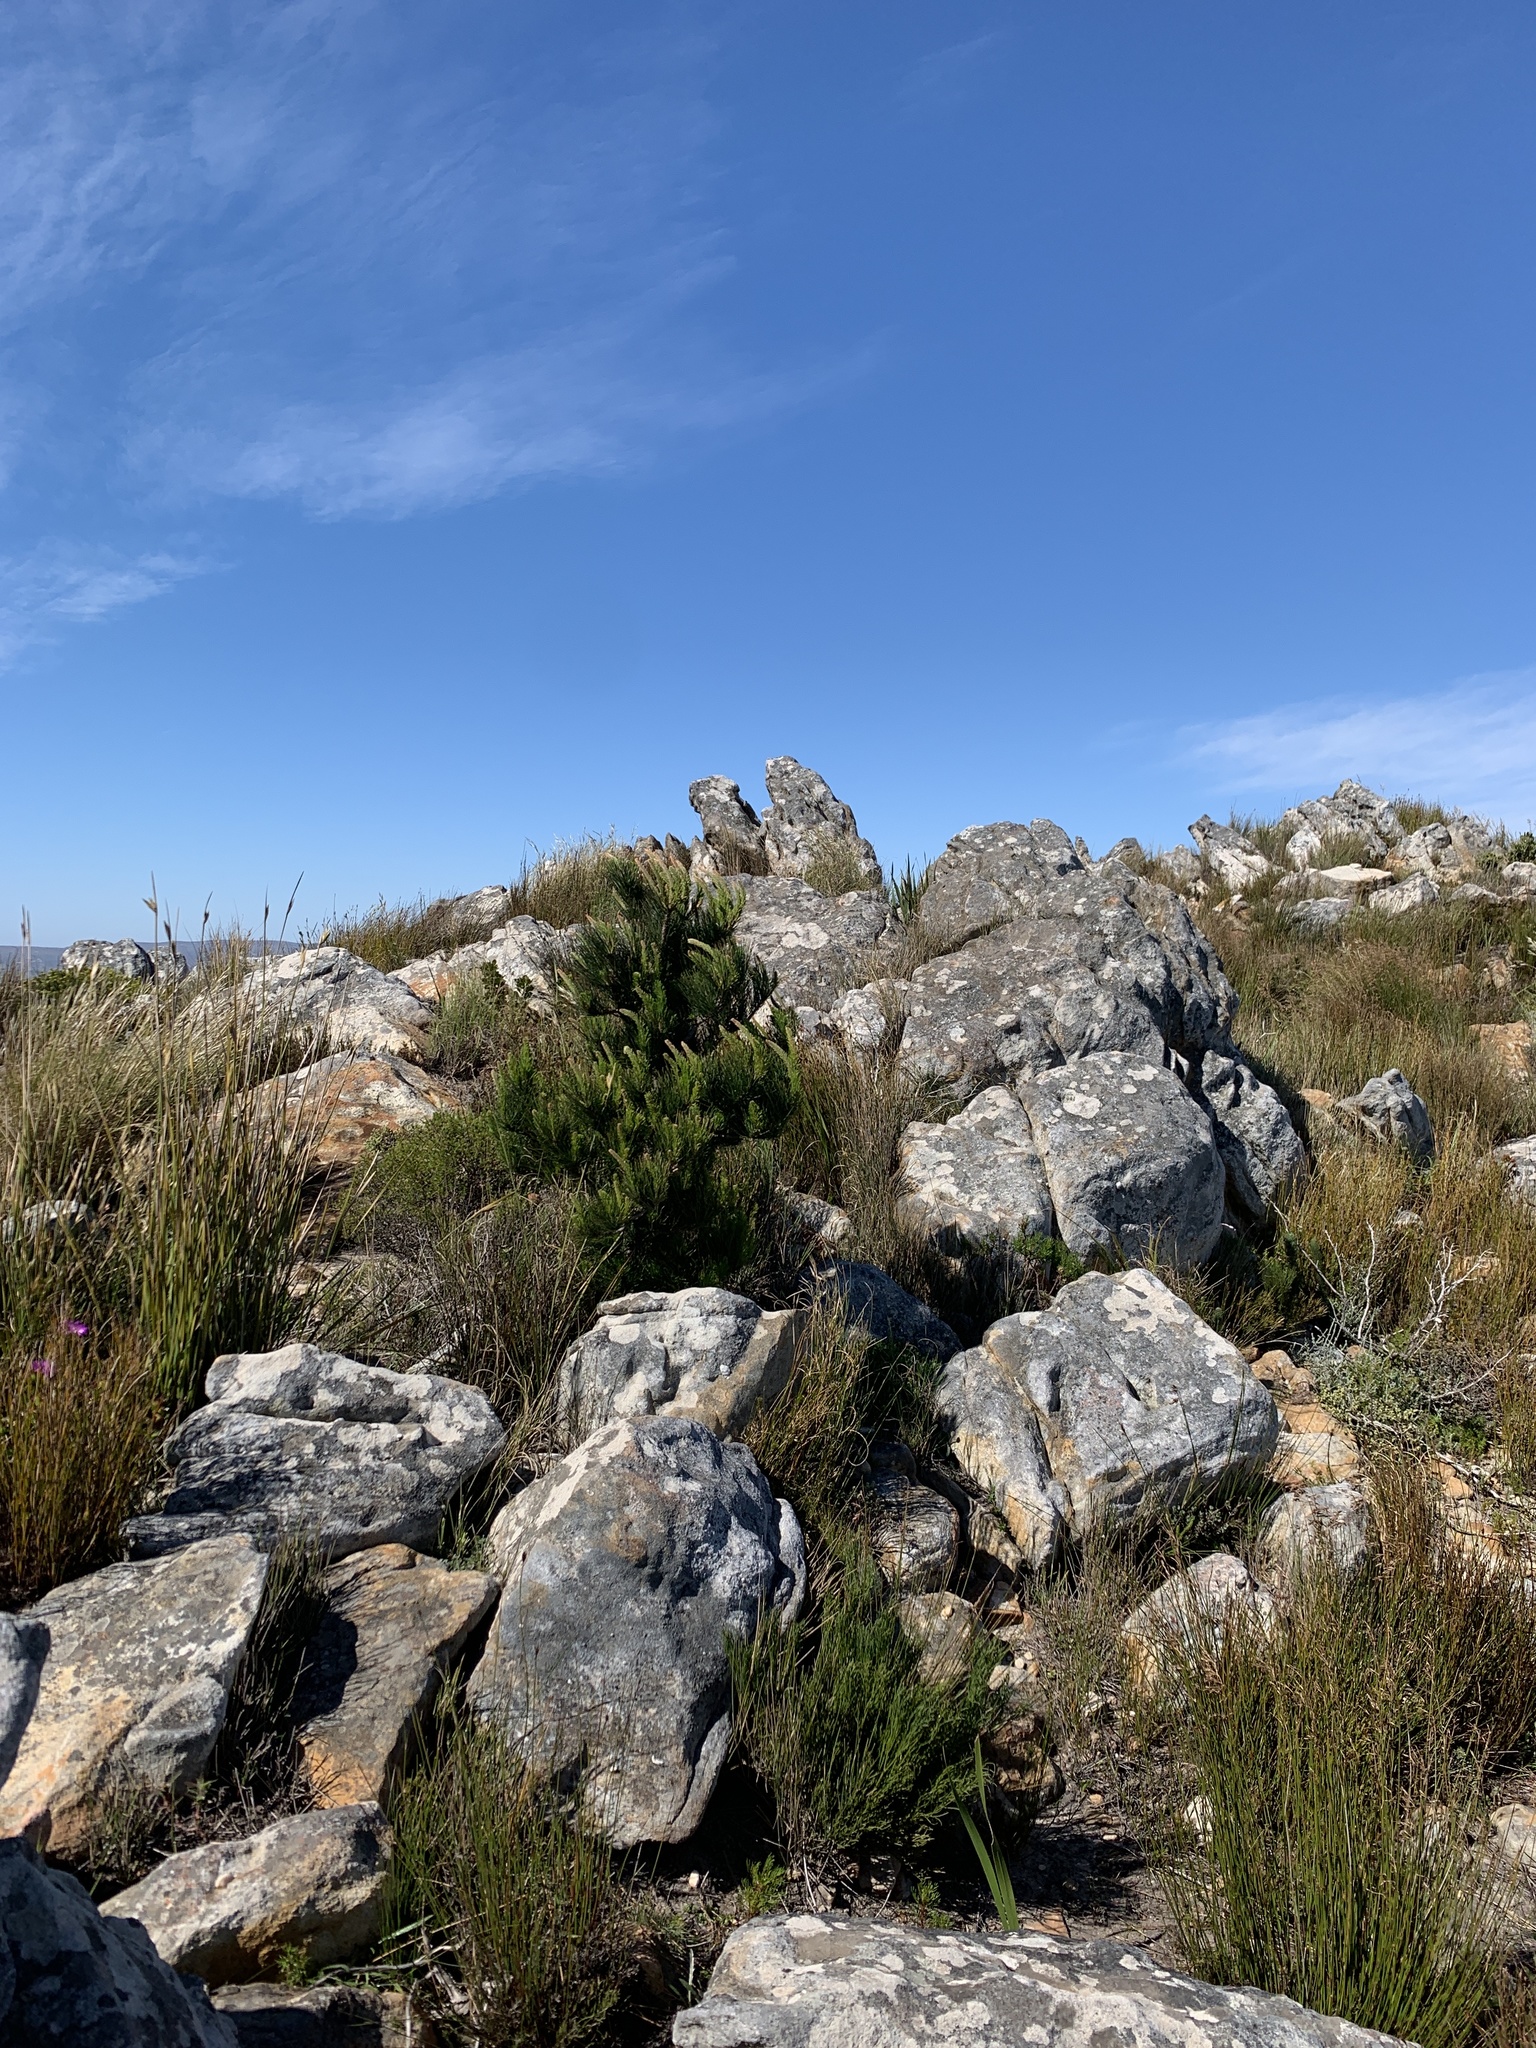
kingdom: Plantae
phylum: Tracheophyta
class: Pinopsida
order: Pinales
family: Pinaceae
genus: Pinus
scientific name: Pinus radiata
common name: Monterey pine
